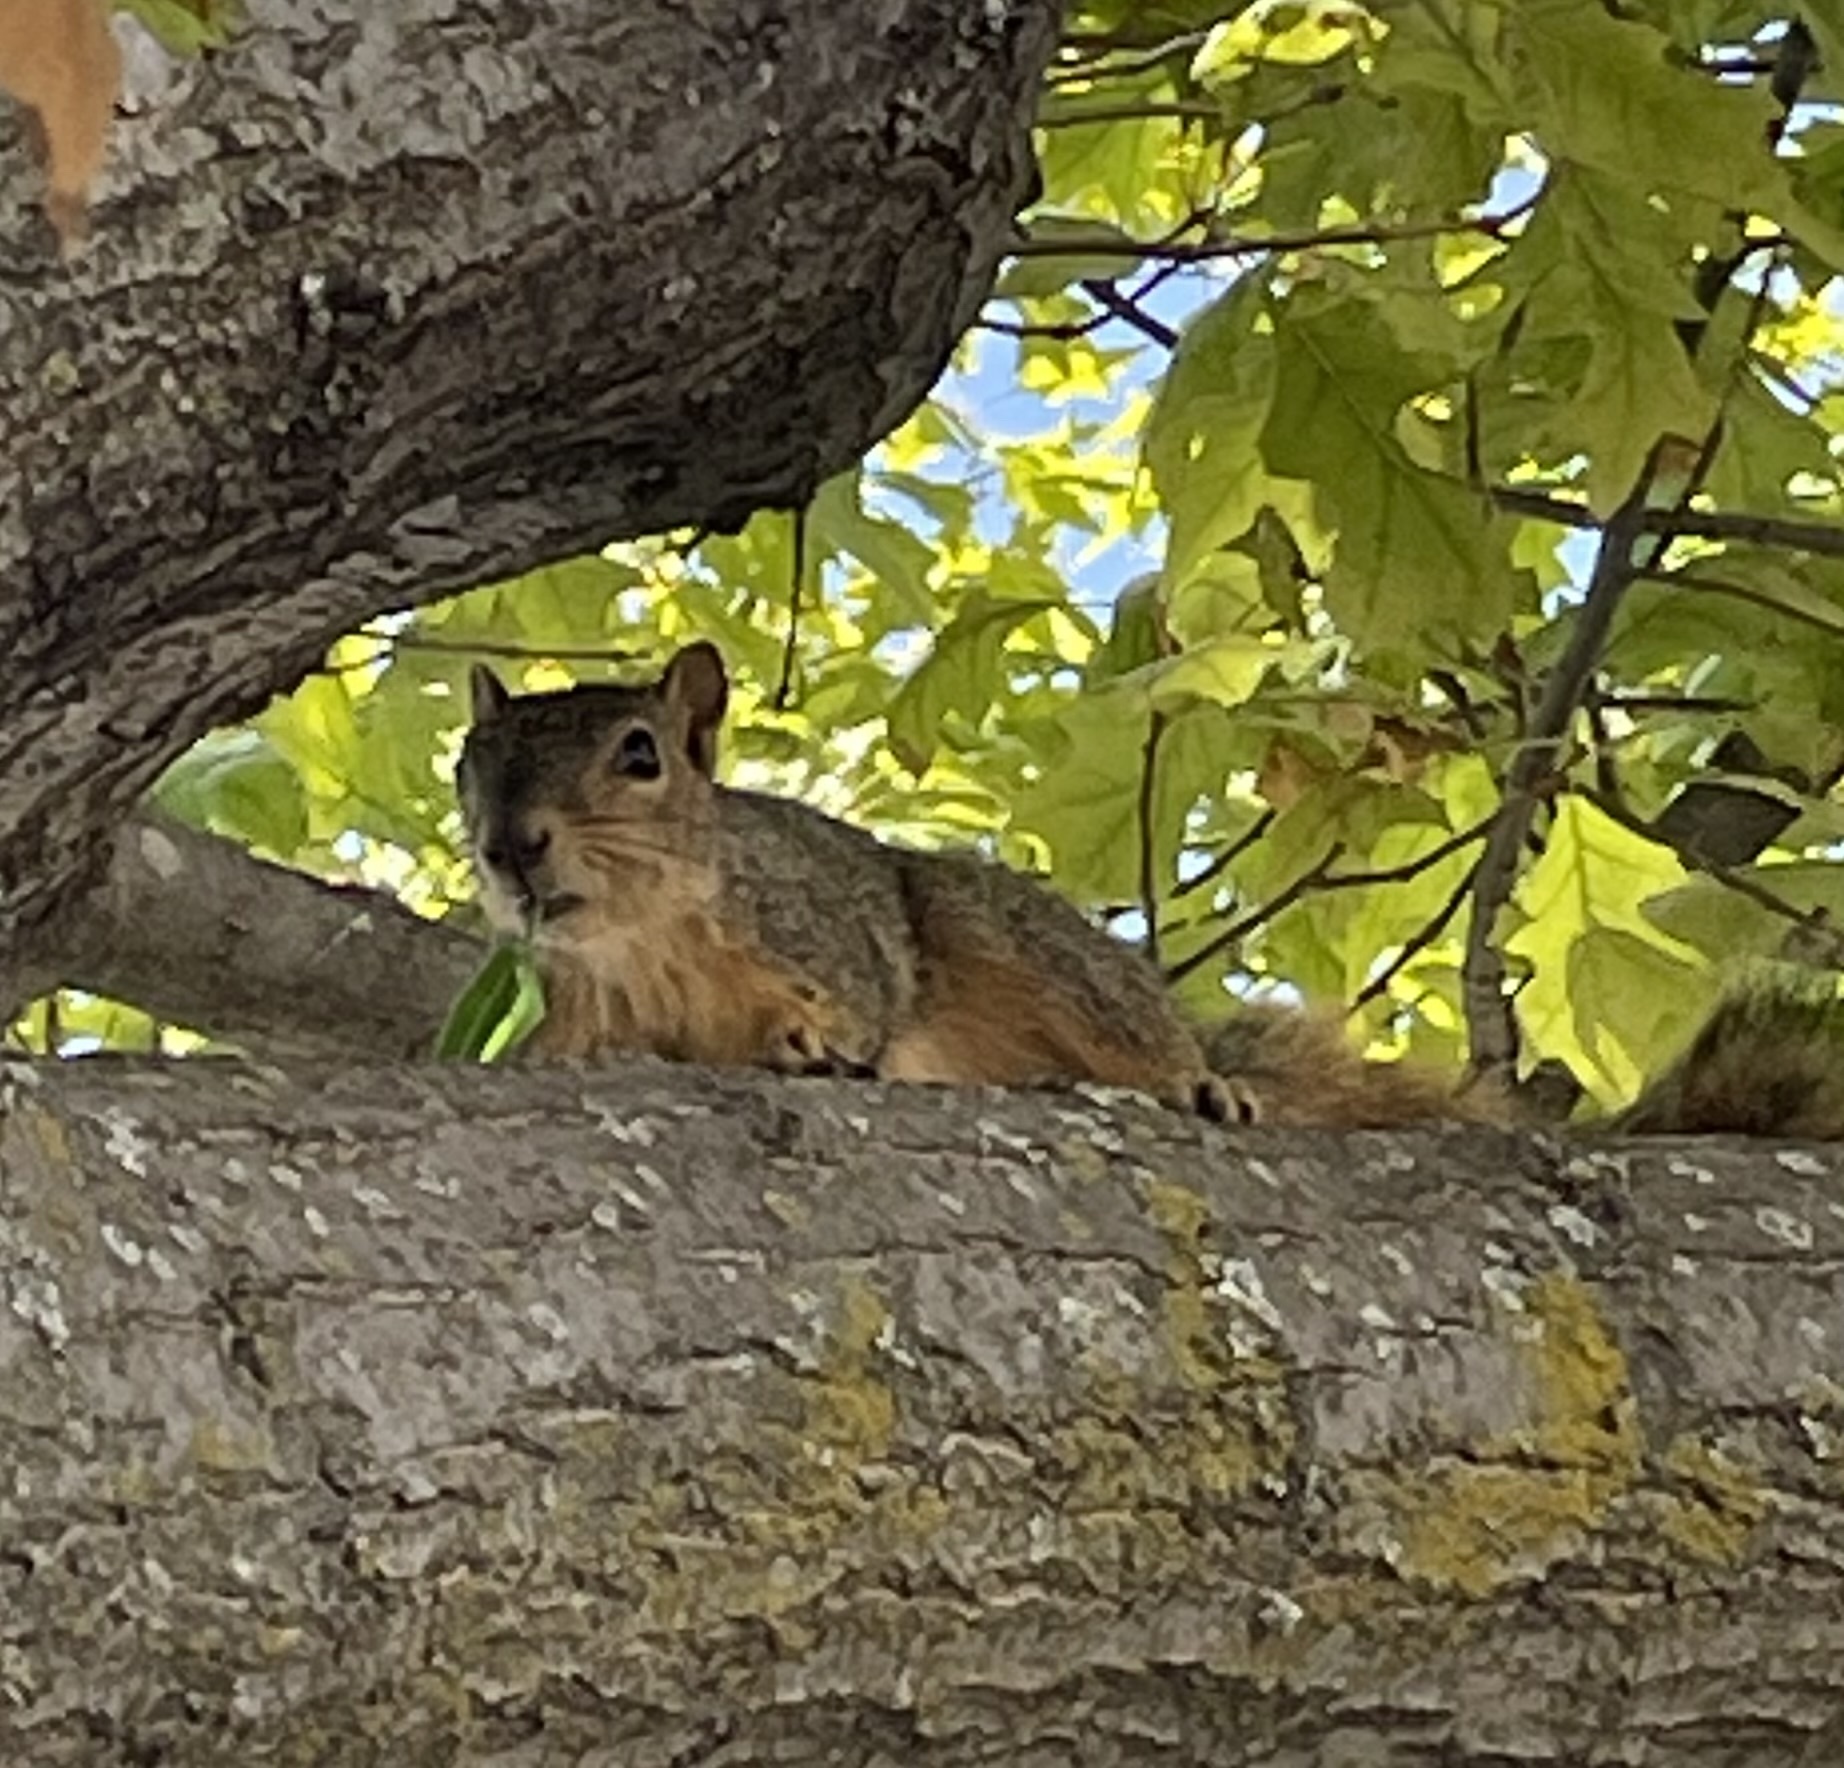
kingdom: Animalia
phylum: Chordata
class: Mammalia
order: Rodentia
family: Sciuridae
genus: Sciurus
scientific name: Sciurus niger
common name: Fox squirrel
